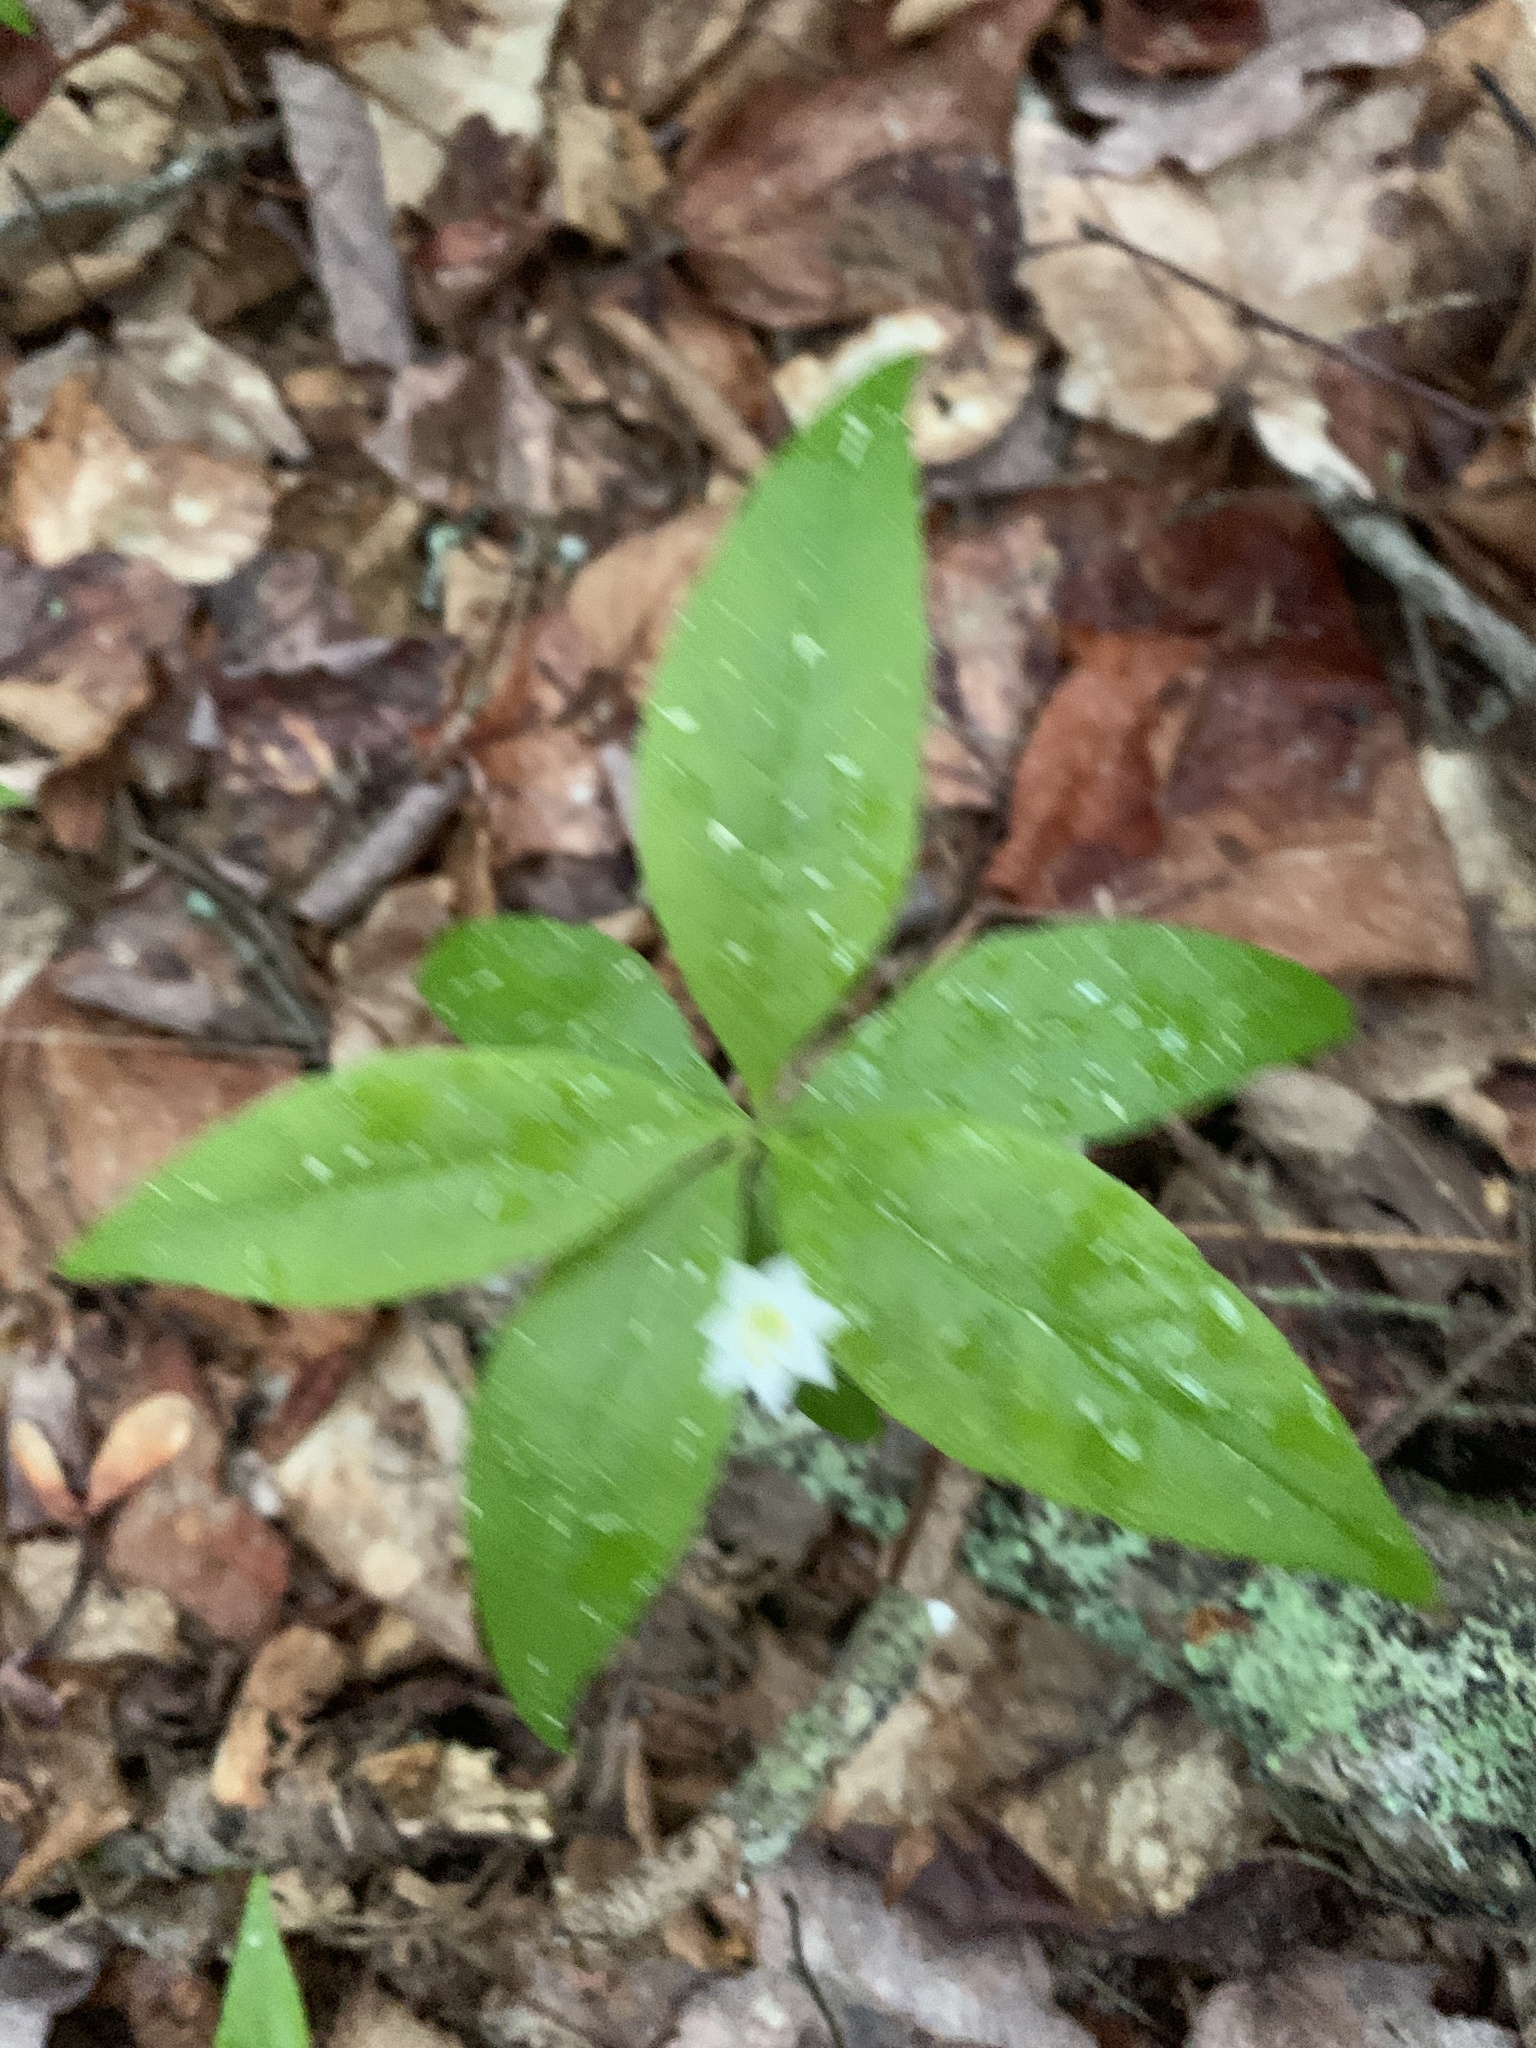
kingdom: Plantae
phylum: Tracheophyta
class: Magnoliopsida
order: Ericales
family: Primulaceae
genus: Lysimachia
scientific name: Lysimachia borealis
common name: American starflower
